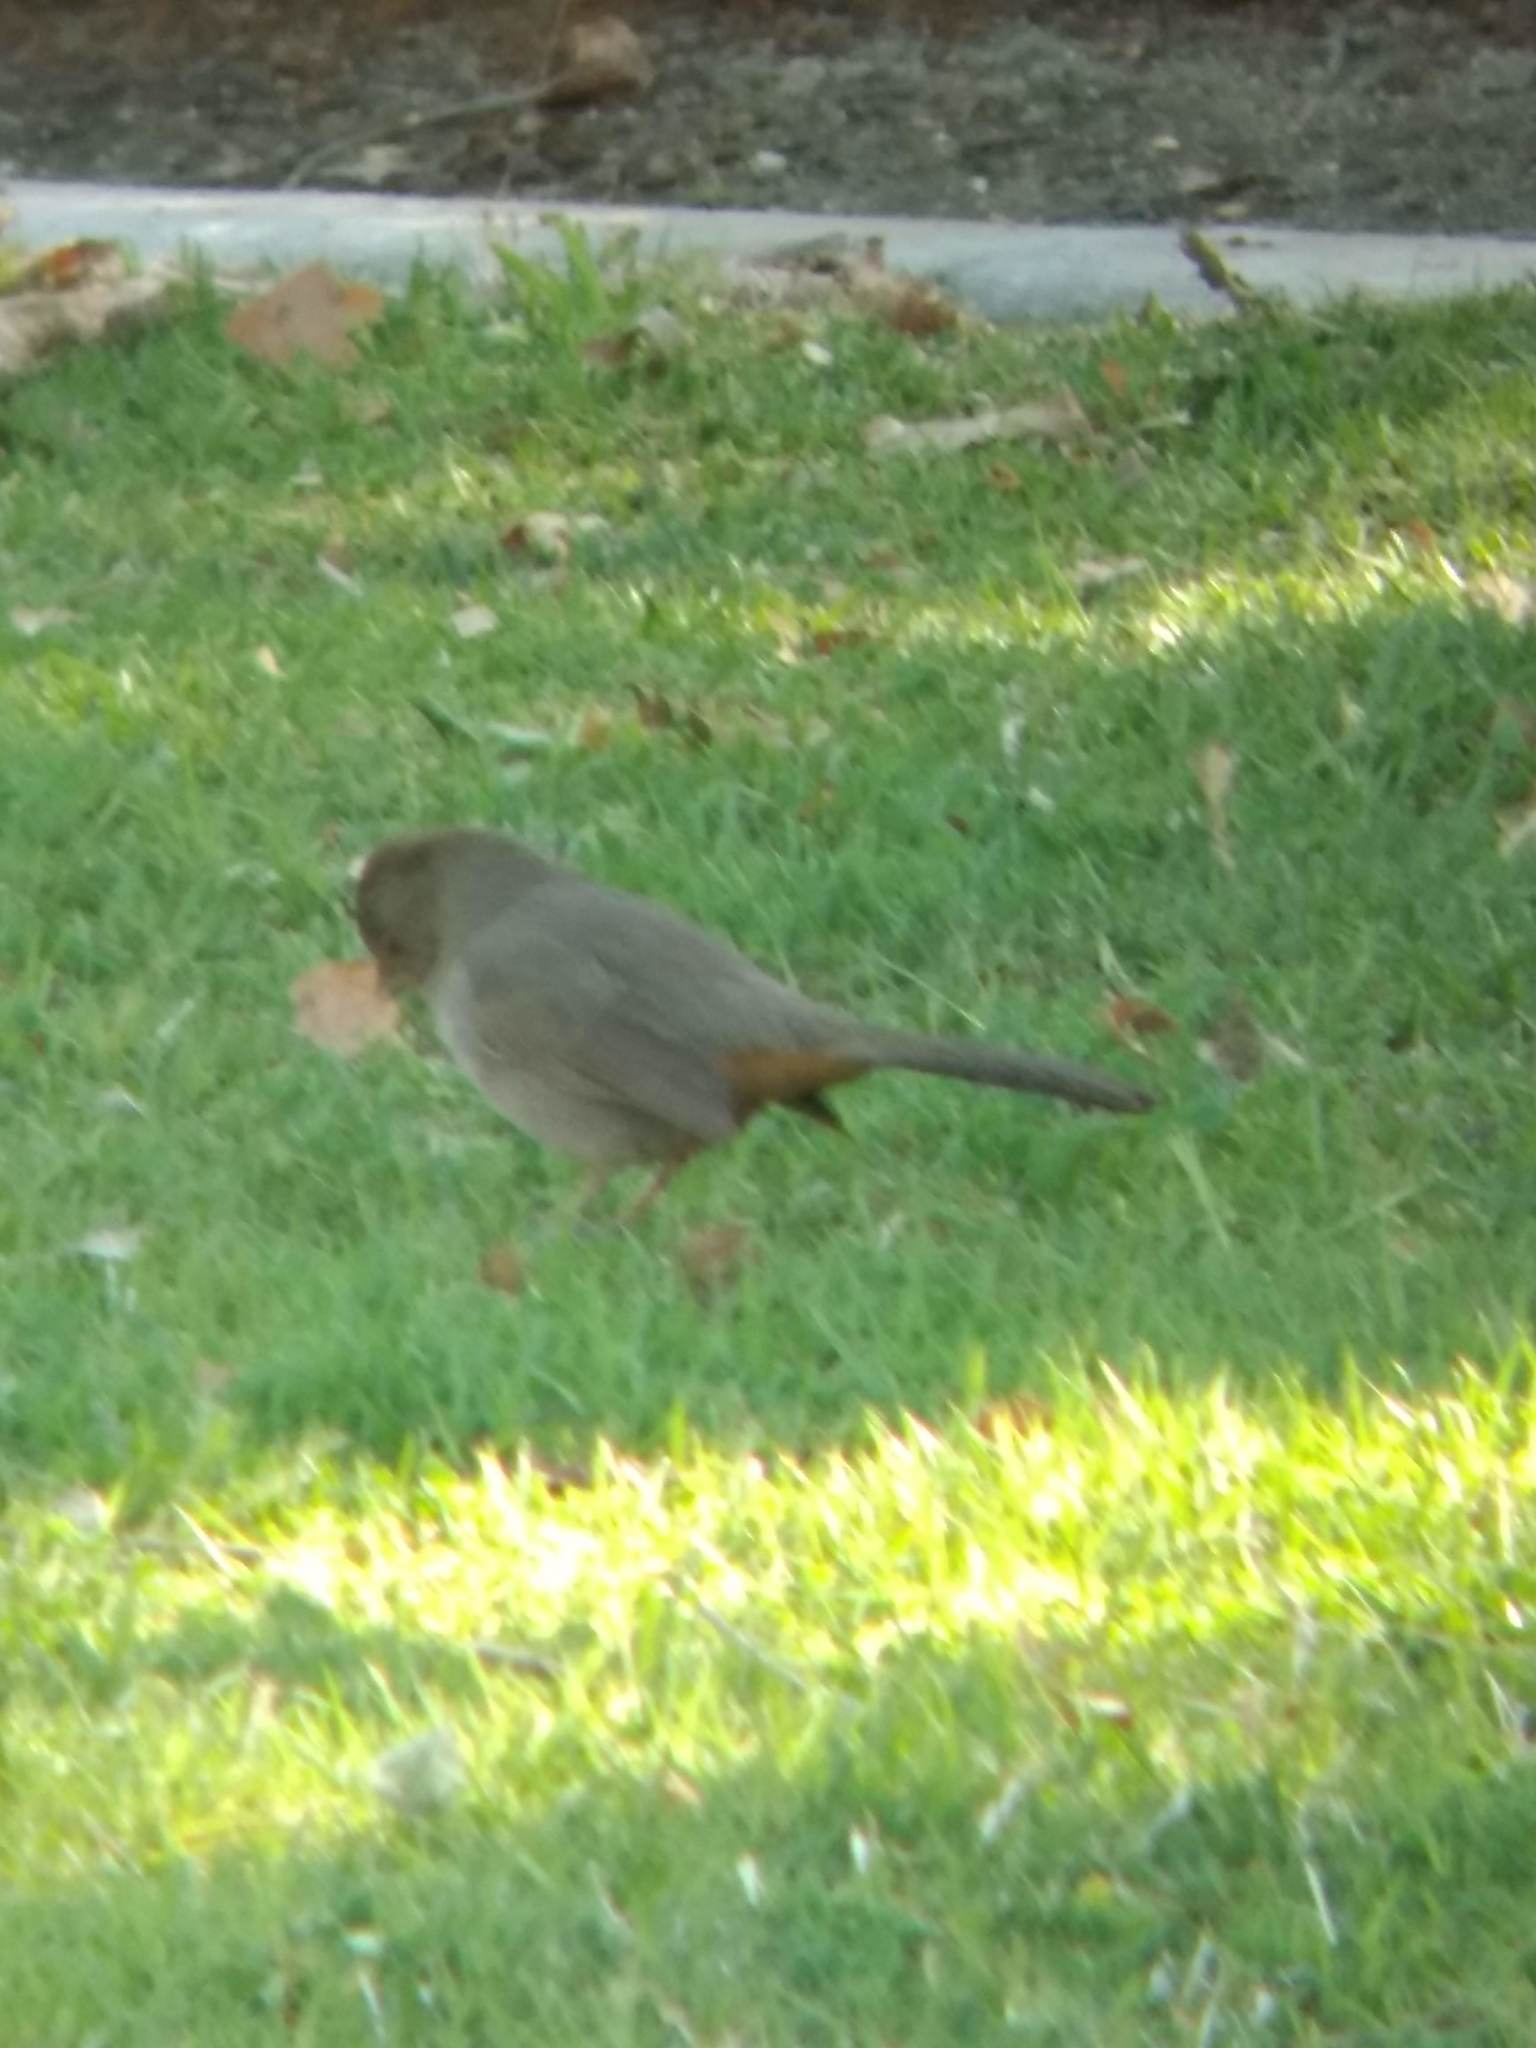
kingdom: Animalia
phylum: Chordata
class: Aves
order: Passeriformes
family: Passerellidae
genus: Melozone
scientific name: Melozone crissalis
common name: California towhee
